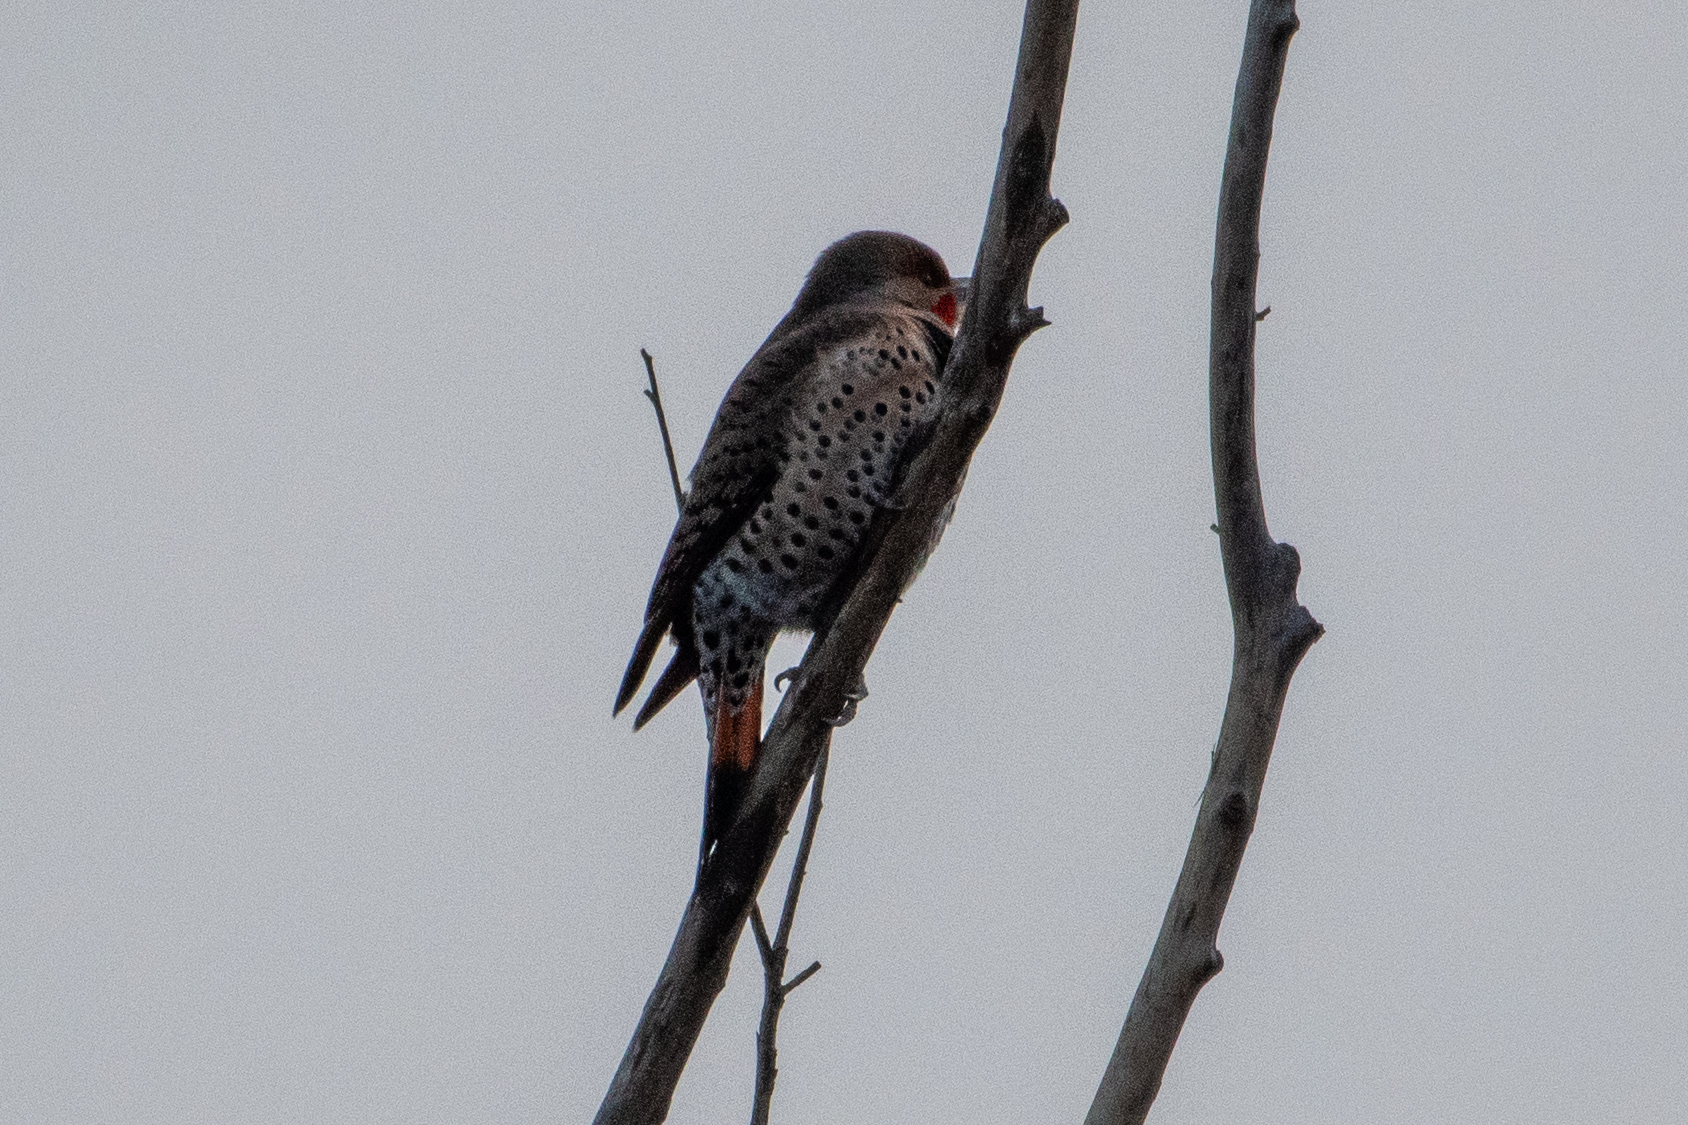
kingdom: Animalia
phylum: Chordata
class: Aves
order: Piciformes
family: Picidae
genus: Colaptes
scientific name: Colaptes auratus
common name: Northern flicker
